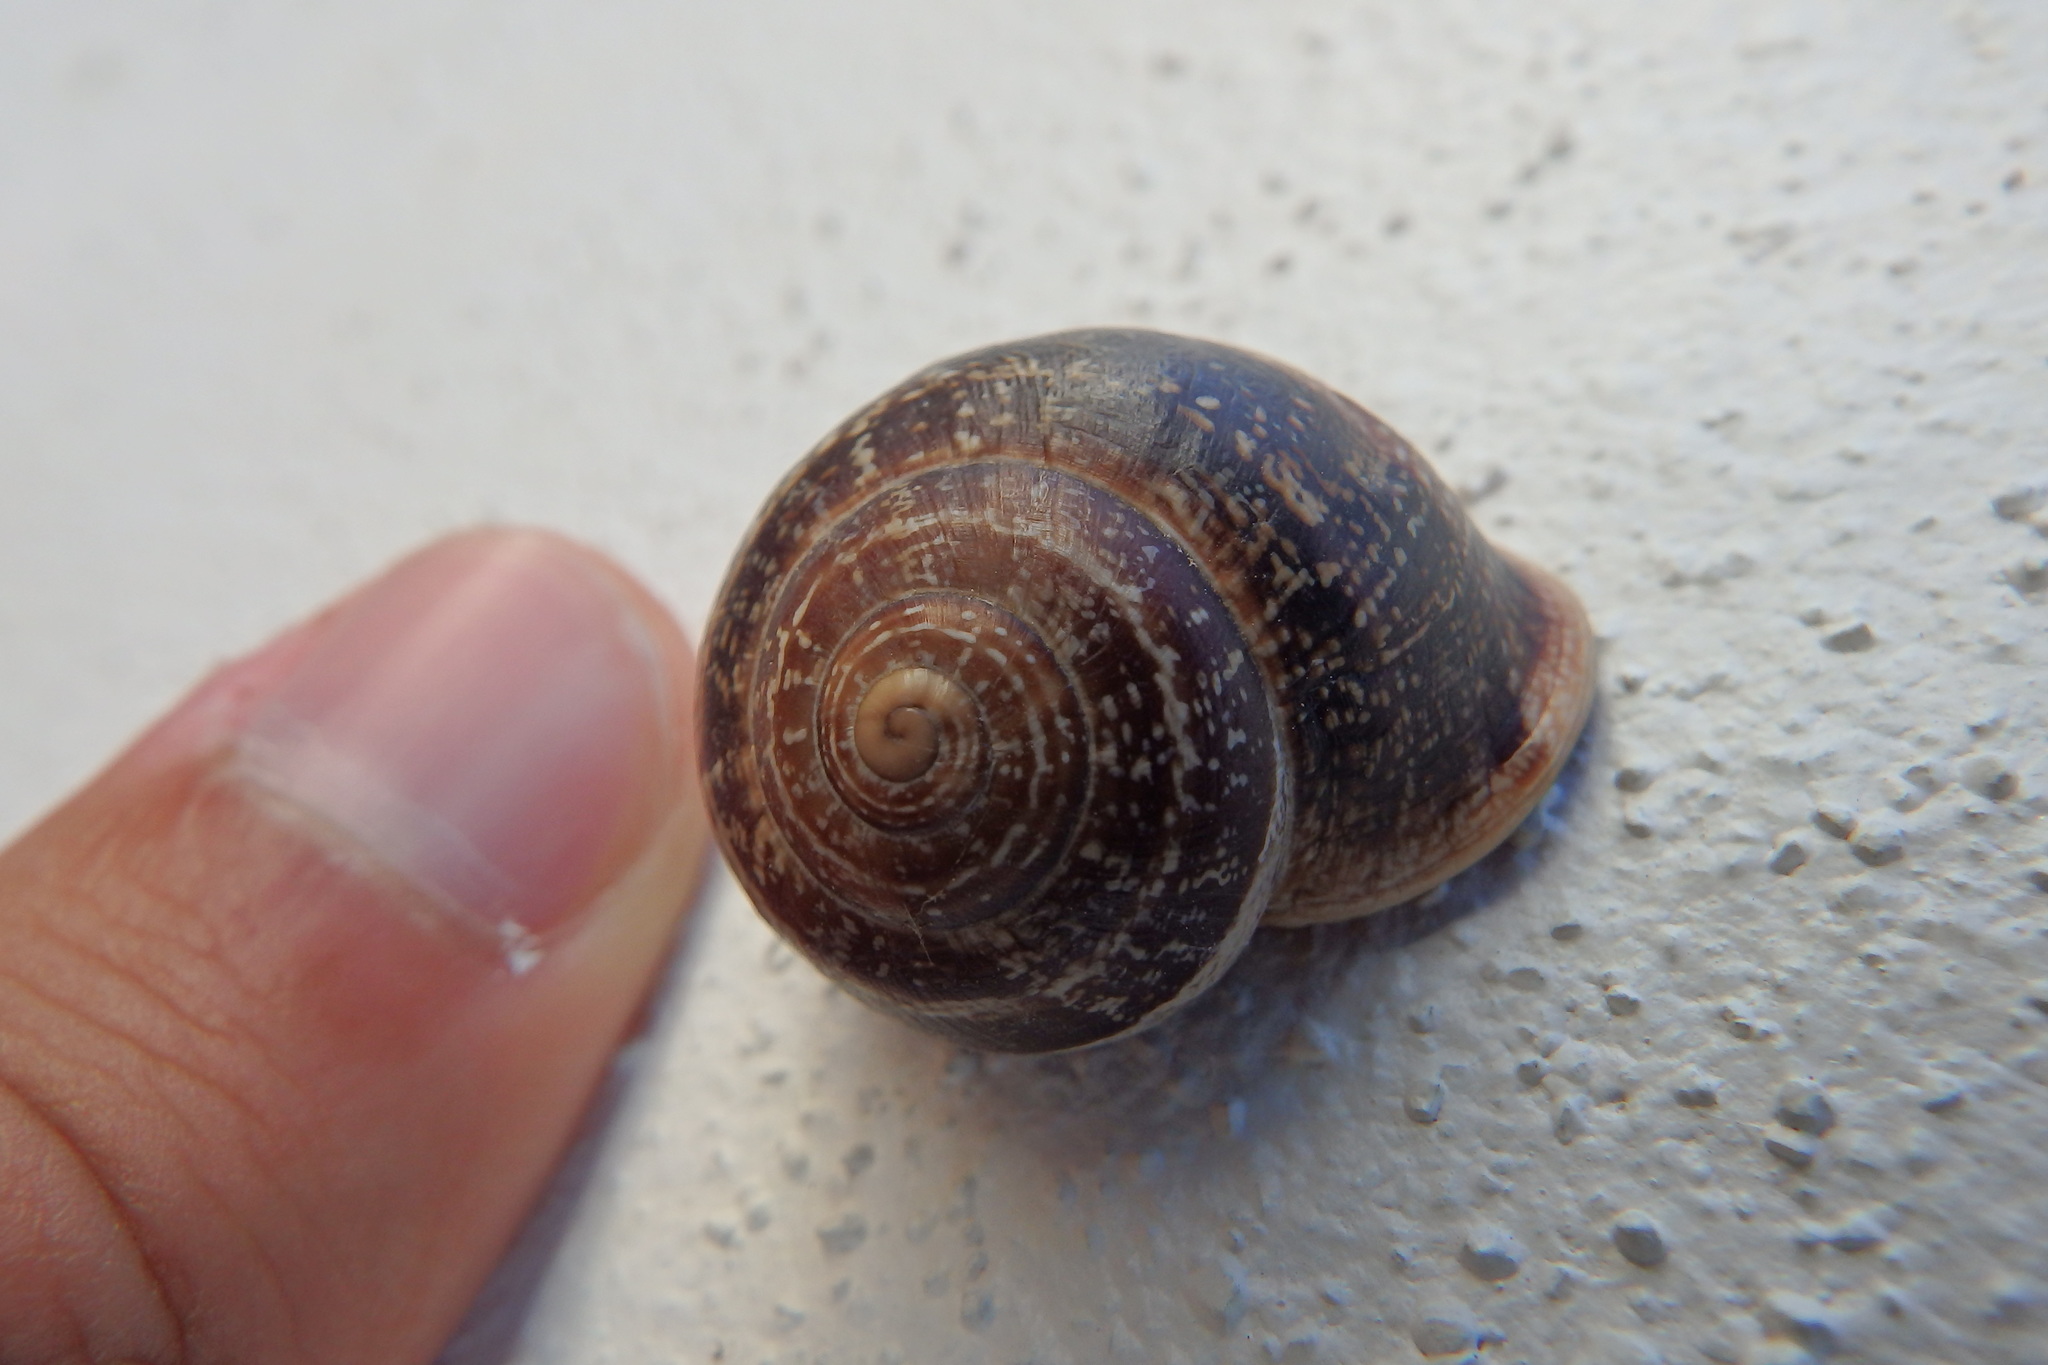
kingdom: Animalia
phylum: Mollusca
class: Gastropoda
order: Stylommatophora
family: Helicidae
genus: Otala
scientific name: Otala lactea
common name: Milk snail
